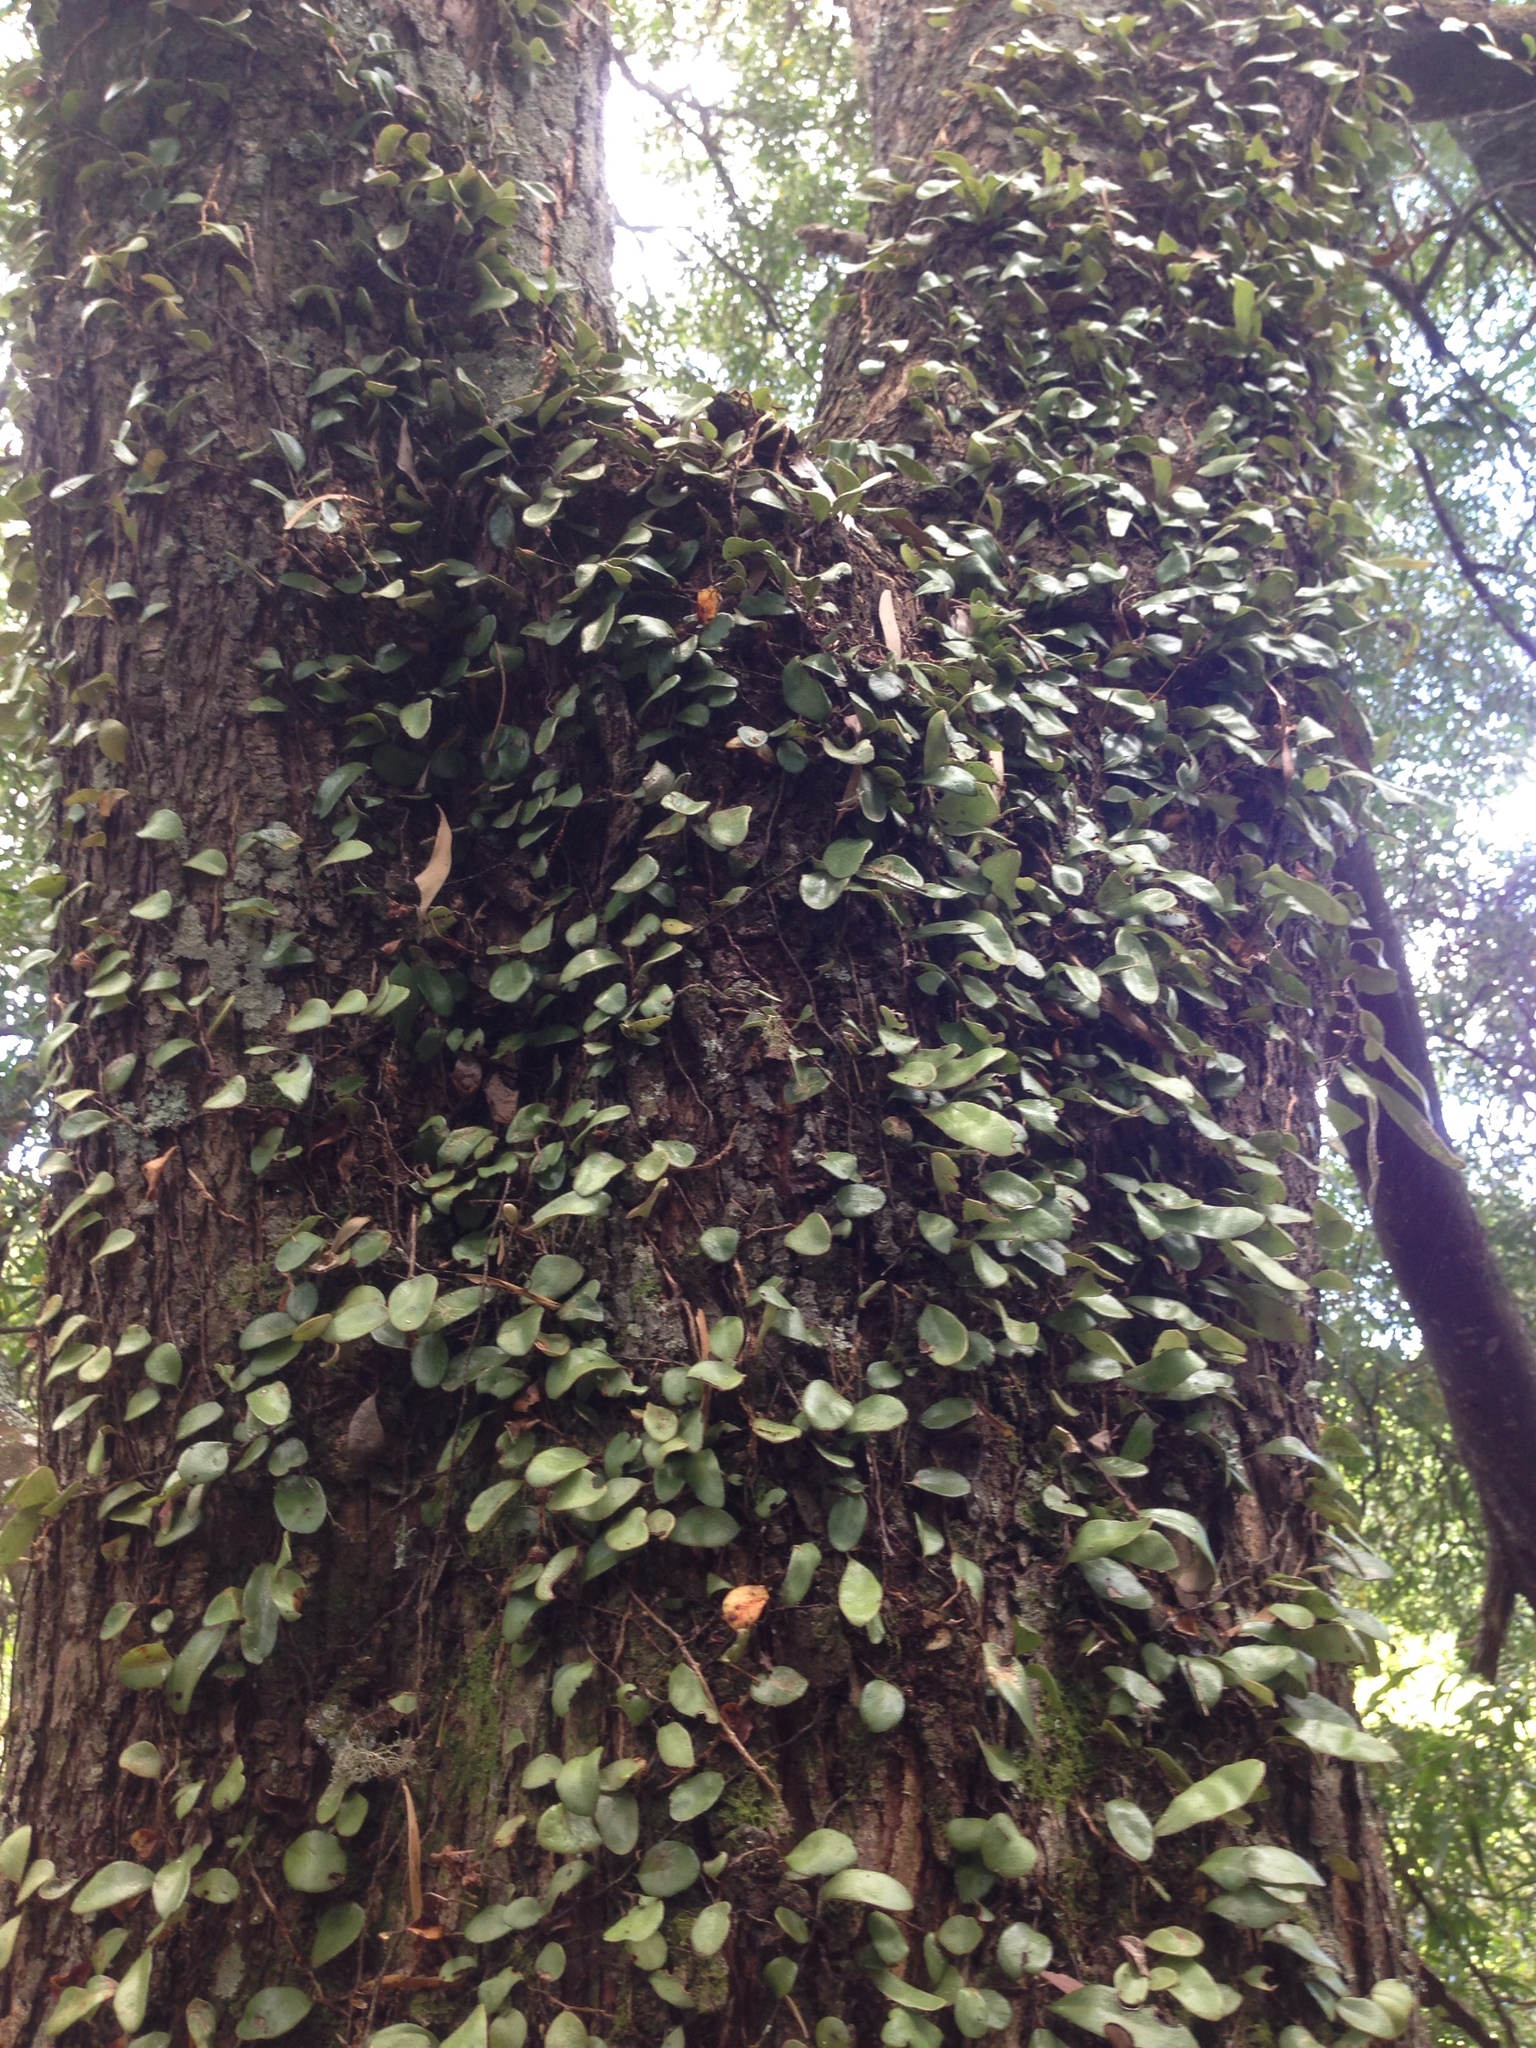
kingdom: Plantae
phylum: Tracheophyta
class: Polypodiopsida
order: Polypodiales
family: Polypodiaceae
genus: Pyrrosia
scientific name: Pyrrosia eleagnifolia
